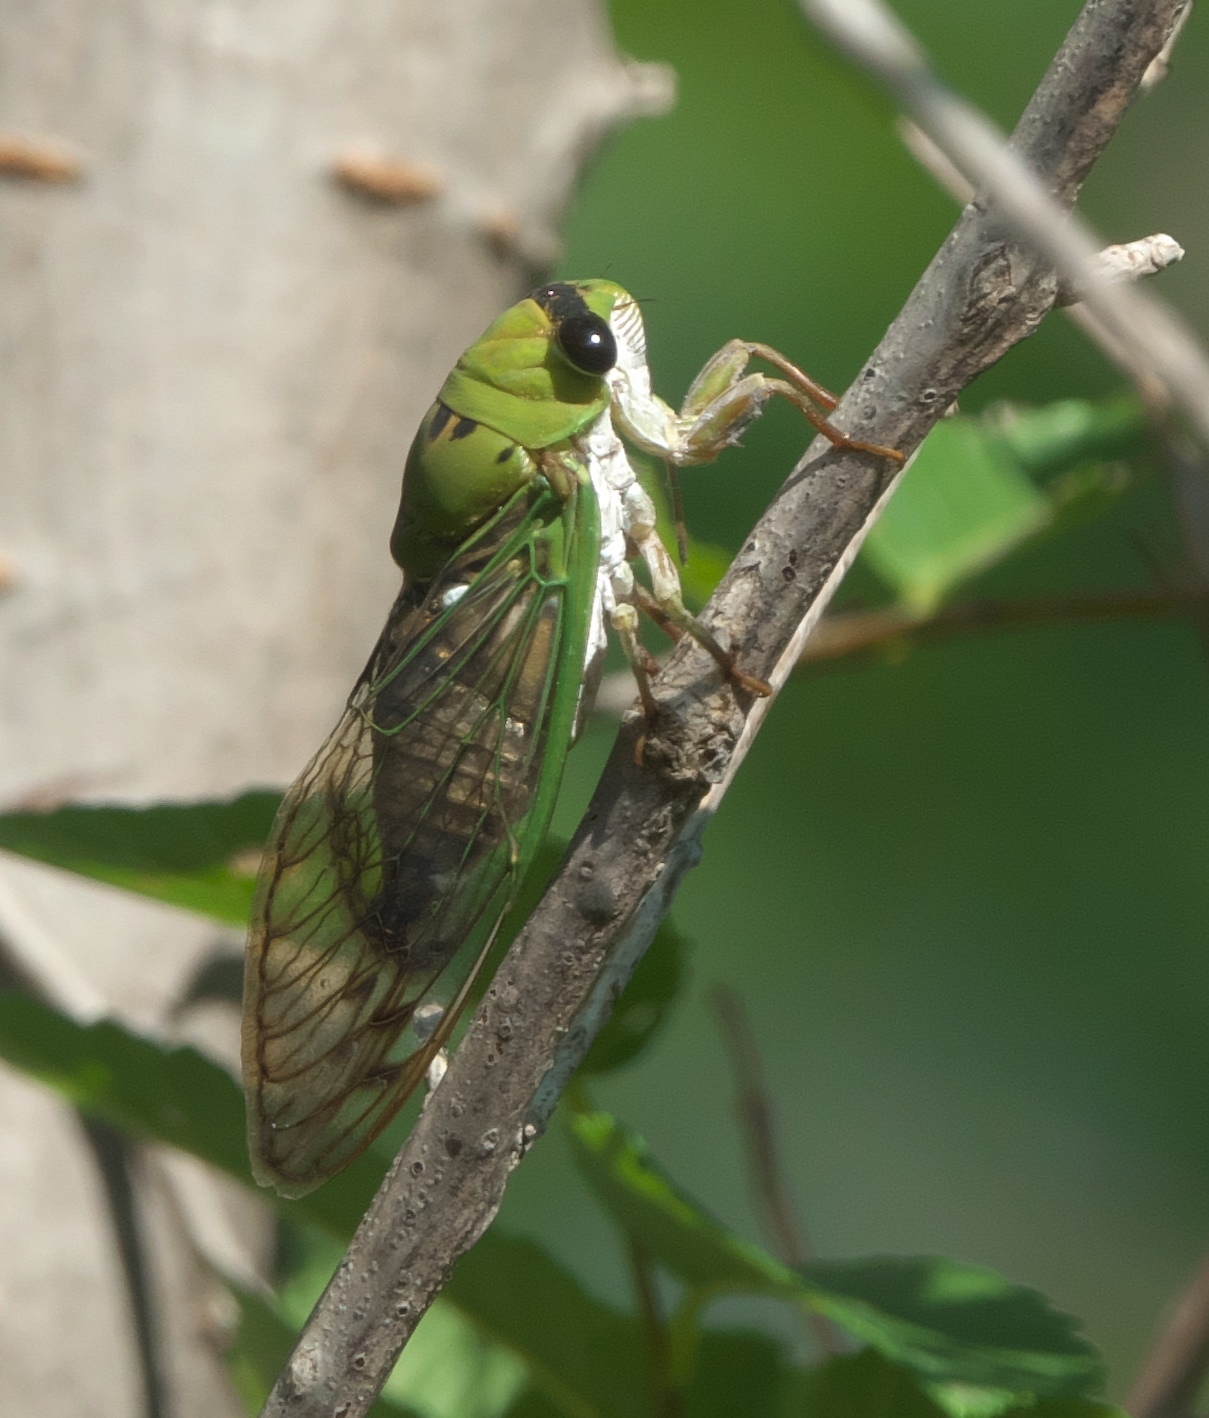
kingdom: Animalia
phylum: Arthropoda
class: Insecta
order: Hemiptera
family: Cicadidae
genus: Neotibicen
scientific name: Neotibicen superbus
